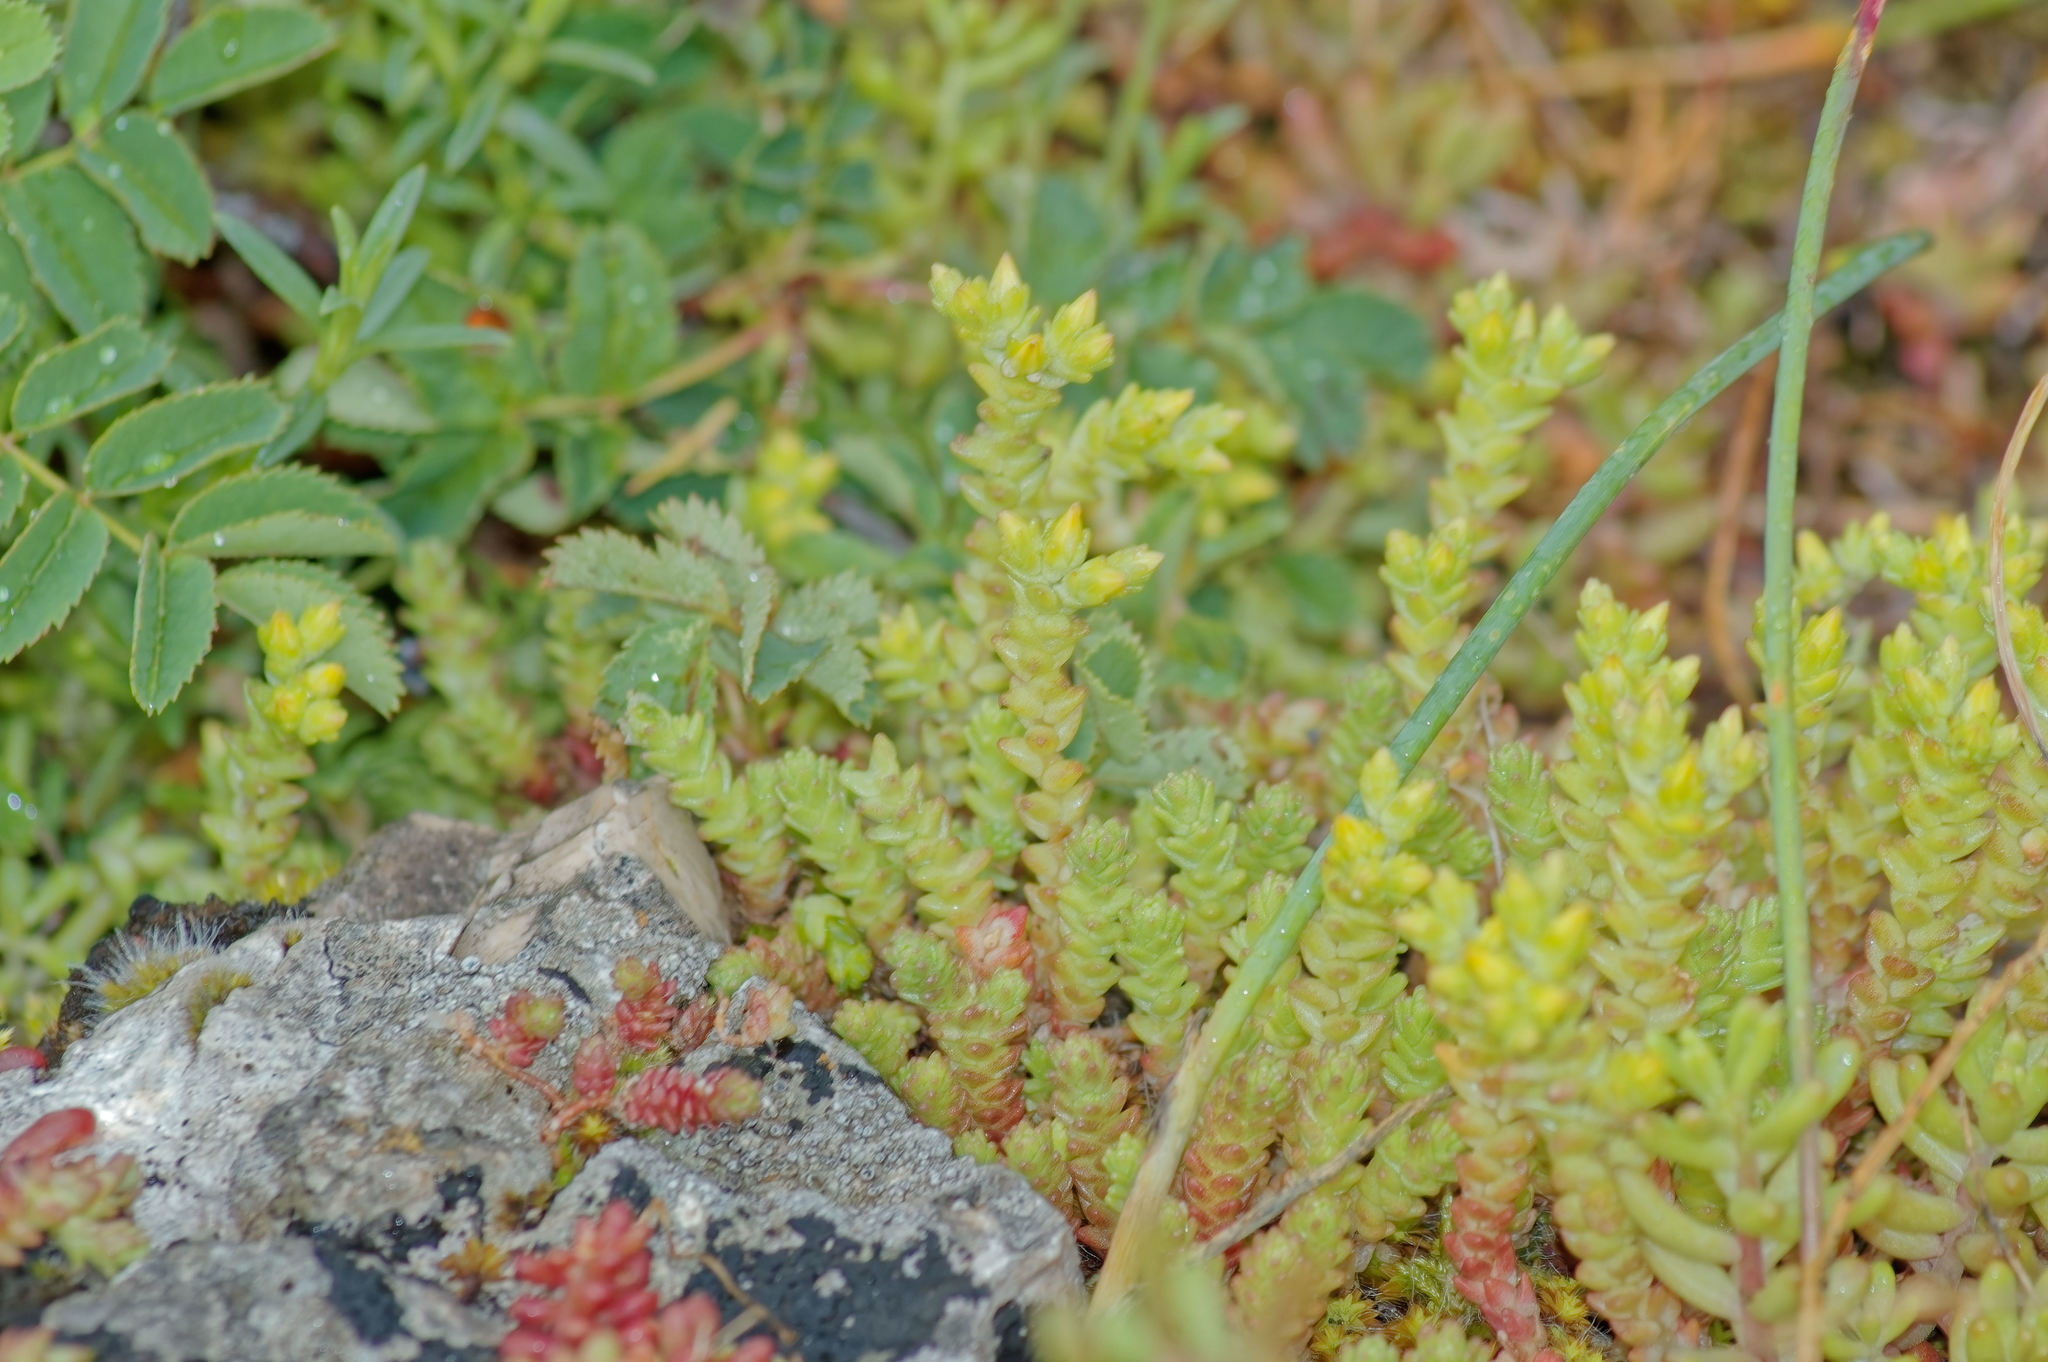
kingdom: Plantae
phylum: Tracheophyta
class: Magnoliopsida
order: Saxifragales
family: Crassulaceae
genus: Sedum
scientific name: Sedum acre
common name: Biting stonecrop
